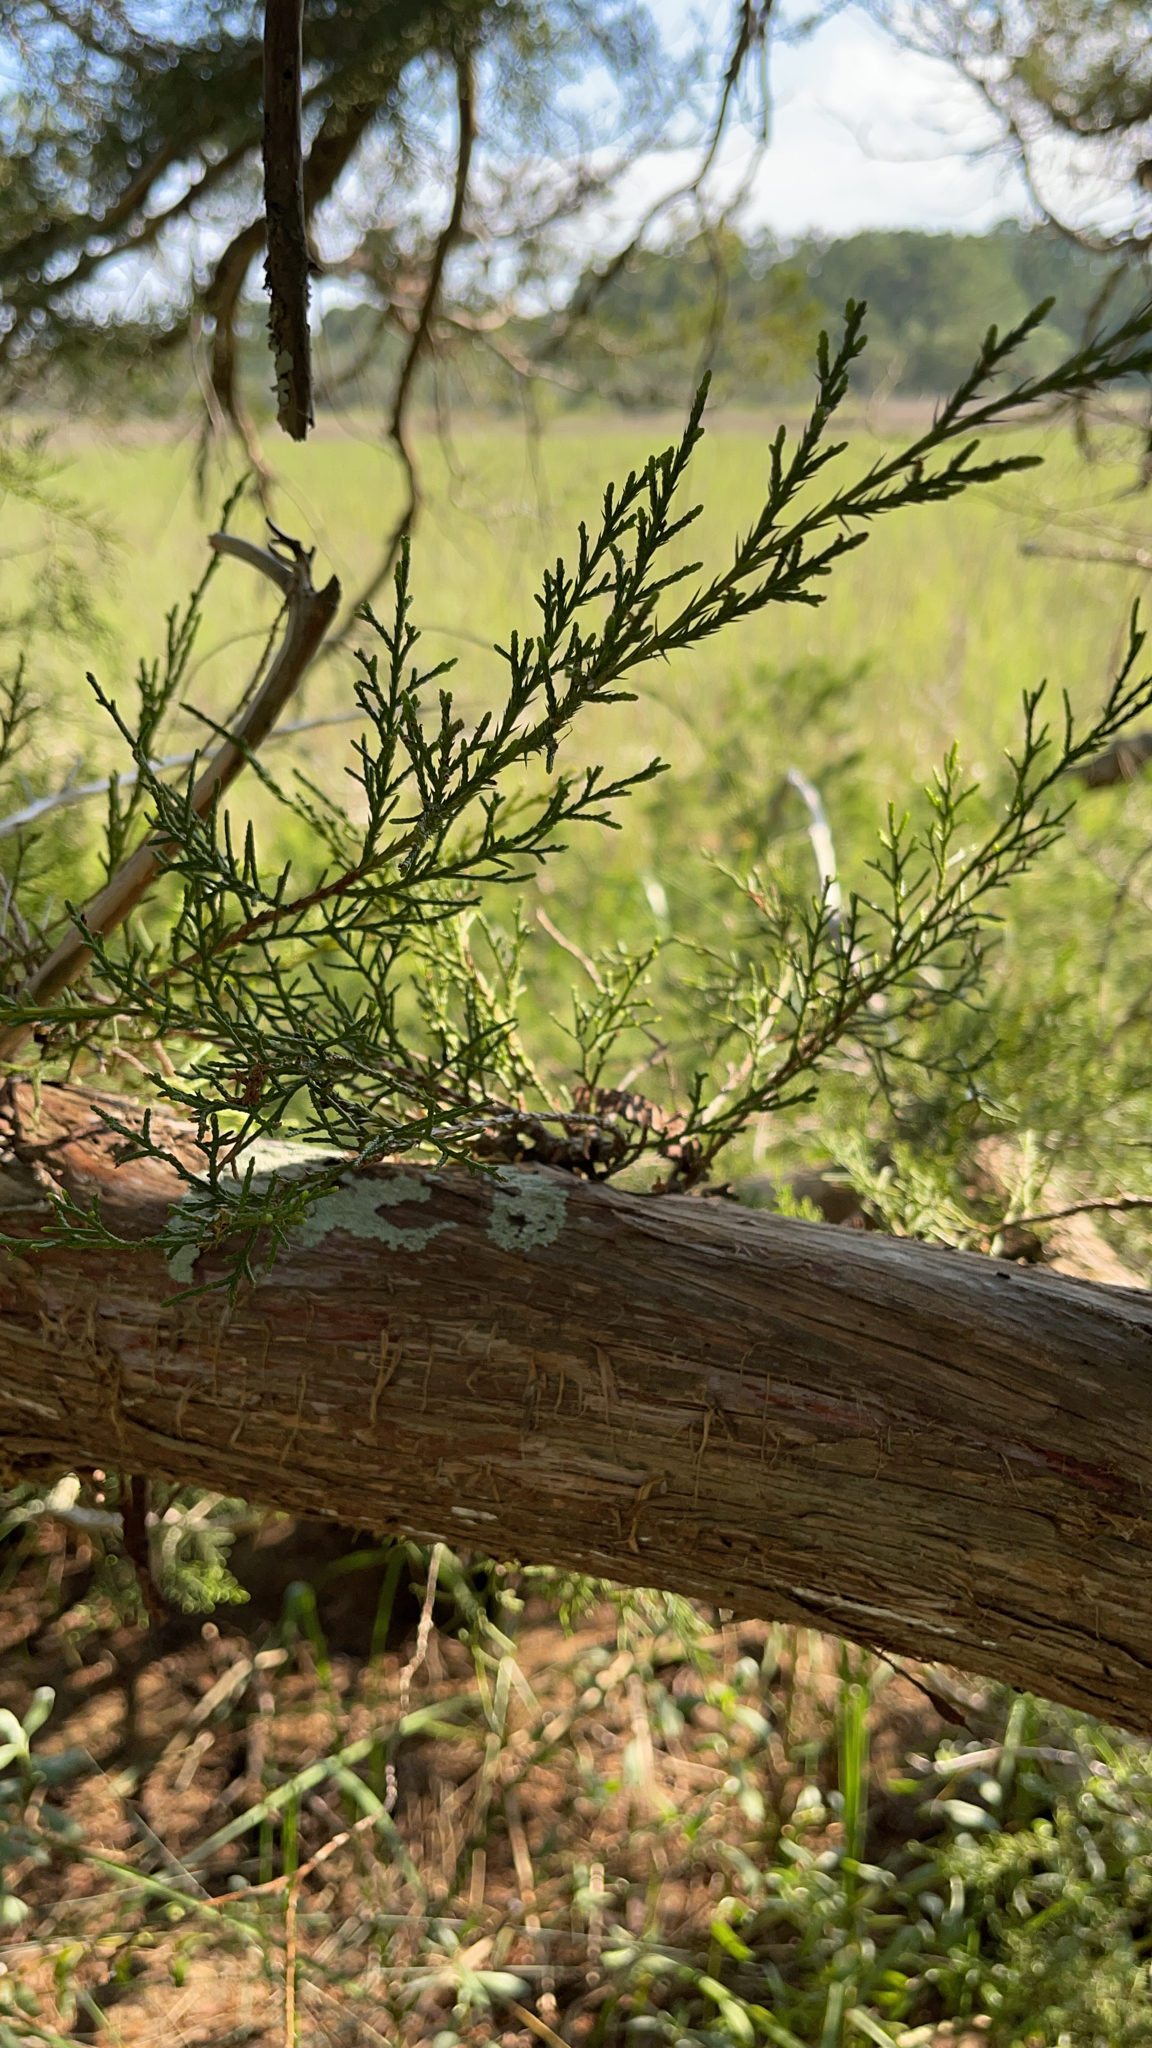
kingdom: Plantae
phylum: Tracheophyta
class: Pinopsida
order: Pinales
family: Cupressaceae
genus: Juniperus
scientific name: Juniperus virginiana
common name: Red juniper
